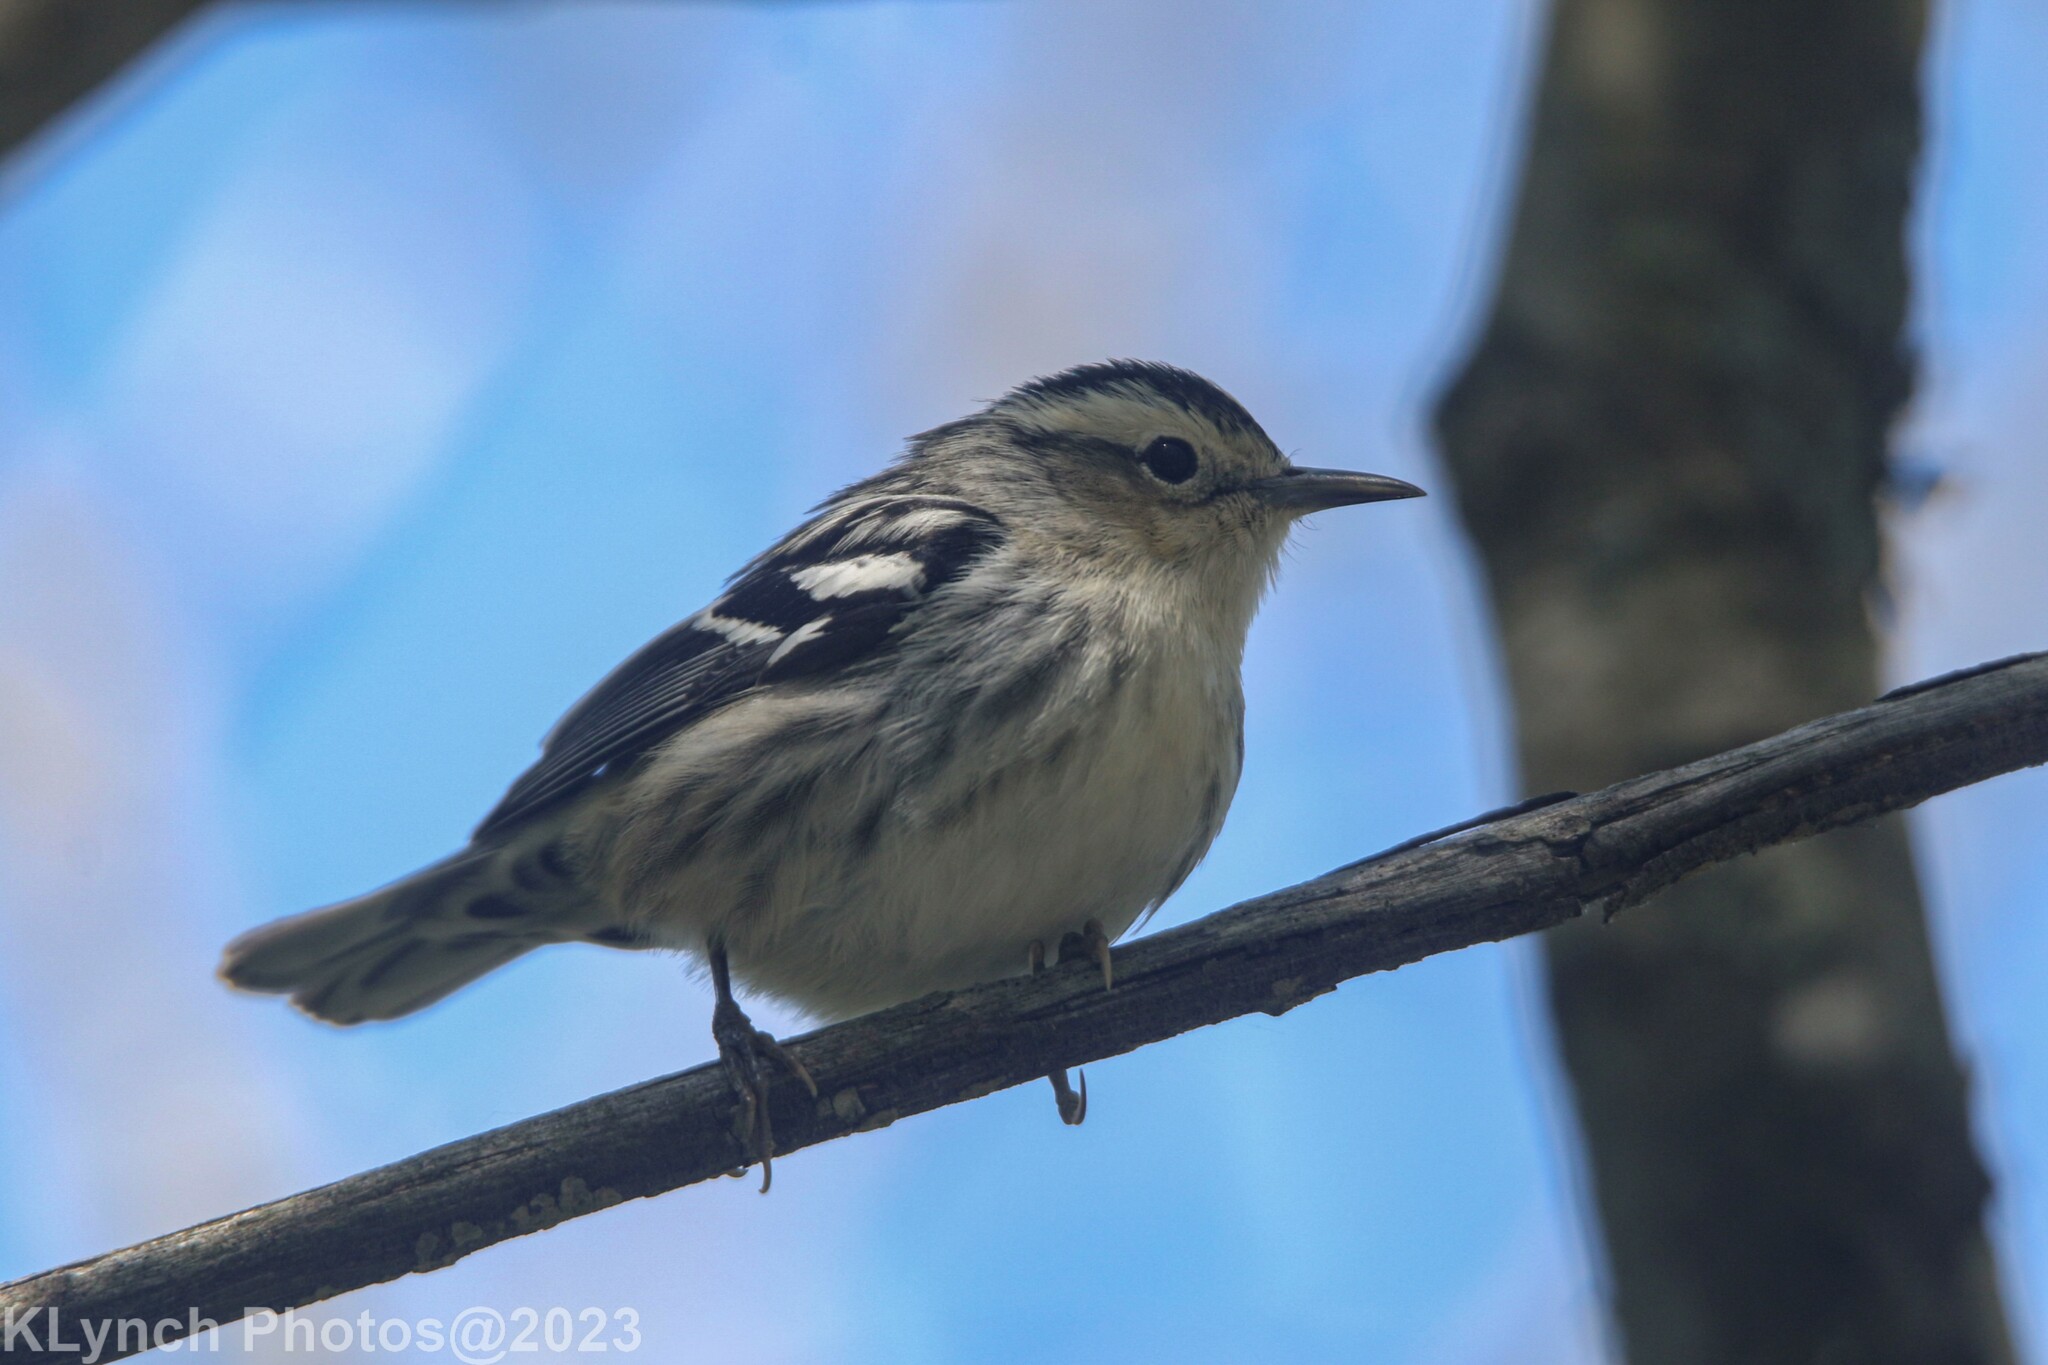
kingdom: Animalia
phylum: Chordata
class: Aves
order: Passeriformes
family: Parulidae
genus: Mniotilta
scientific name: Mniotilta varia
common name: Black-and-white warbler
